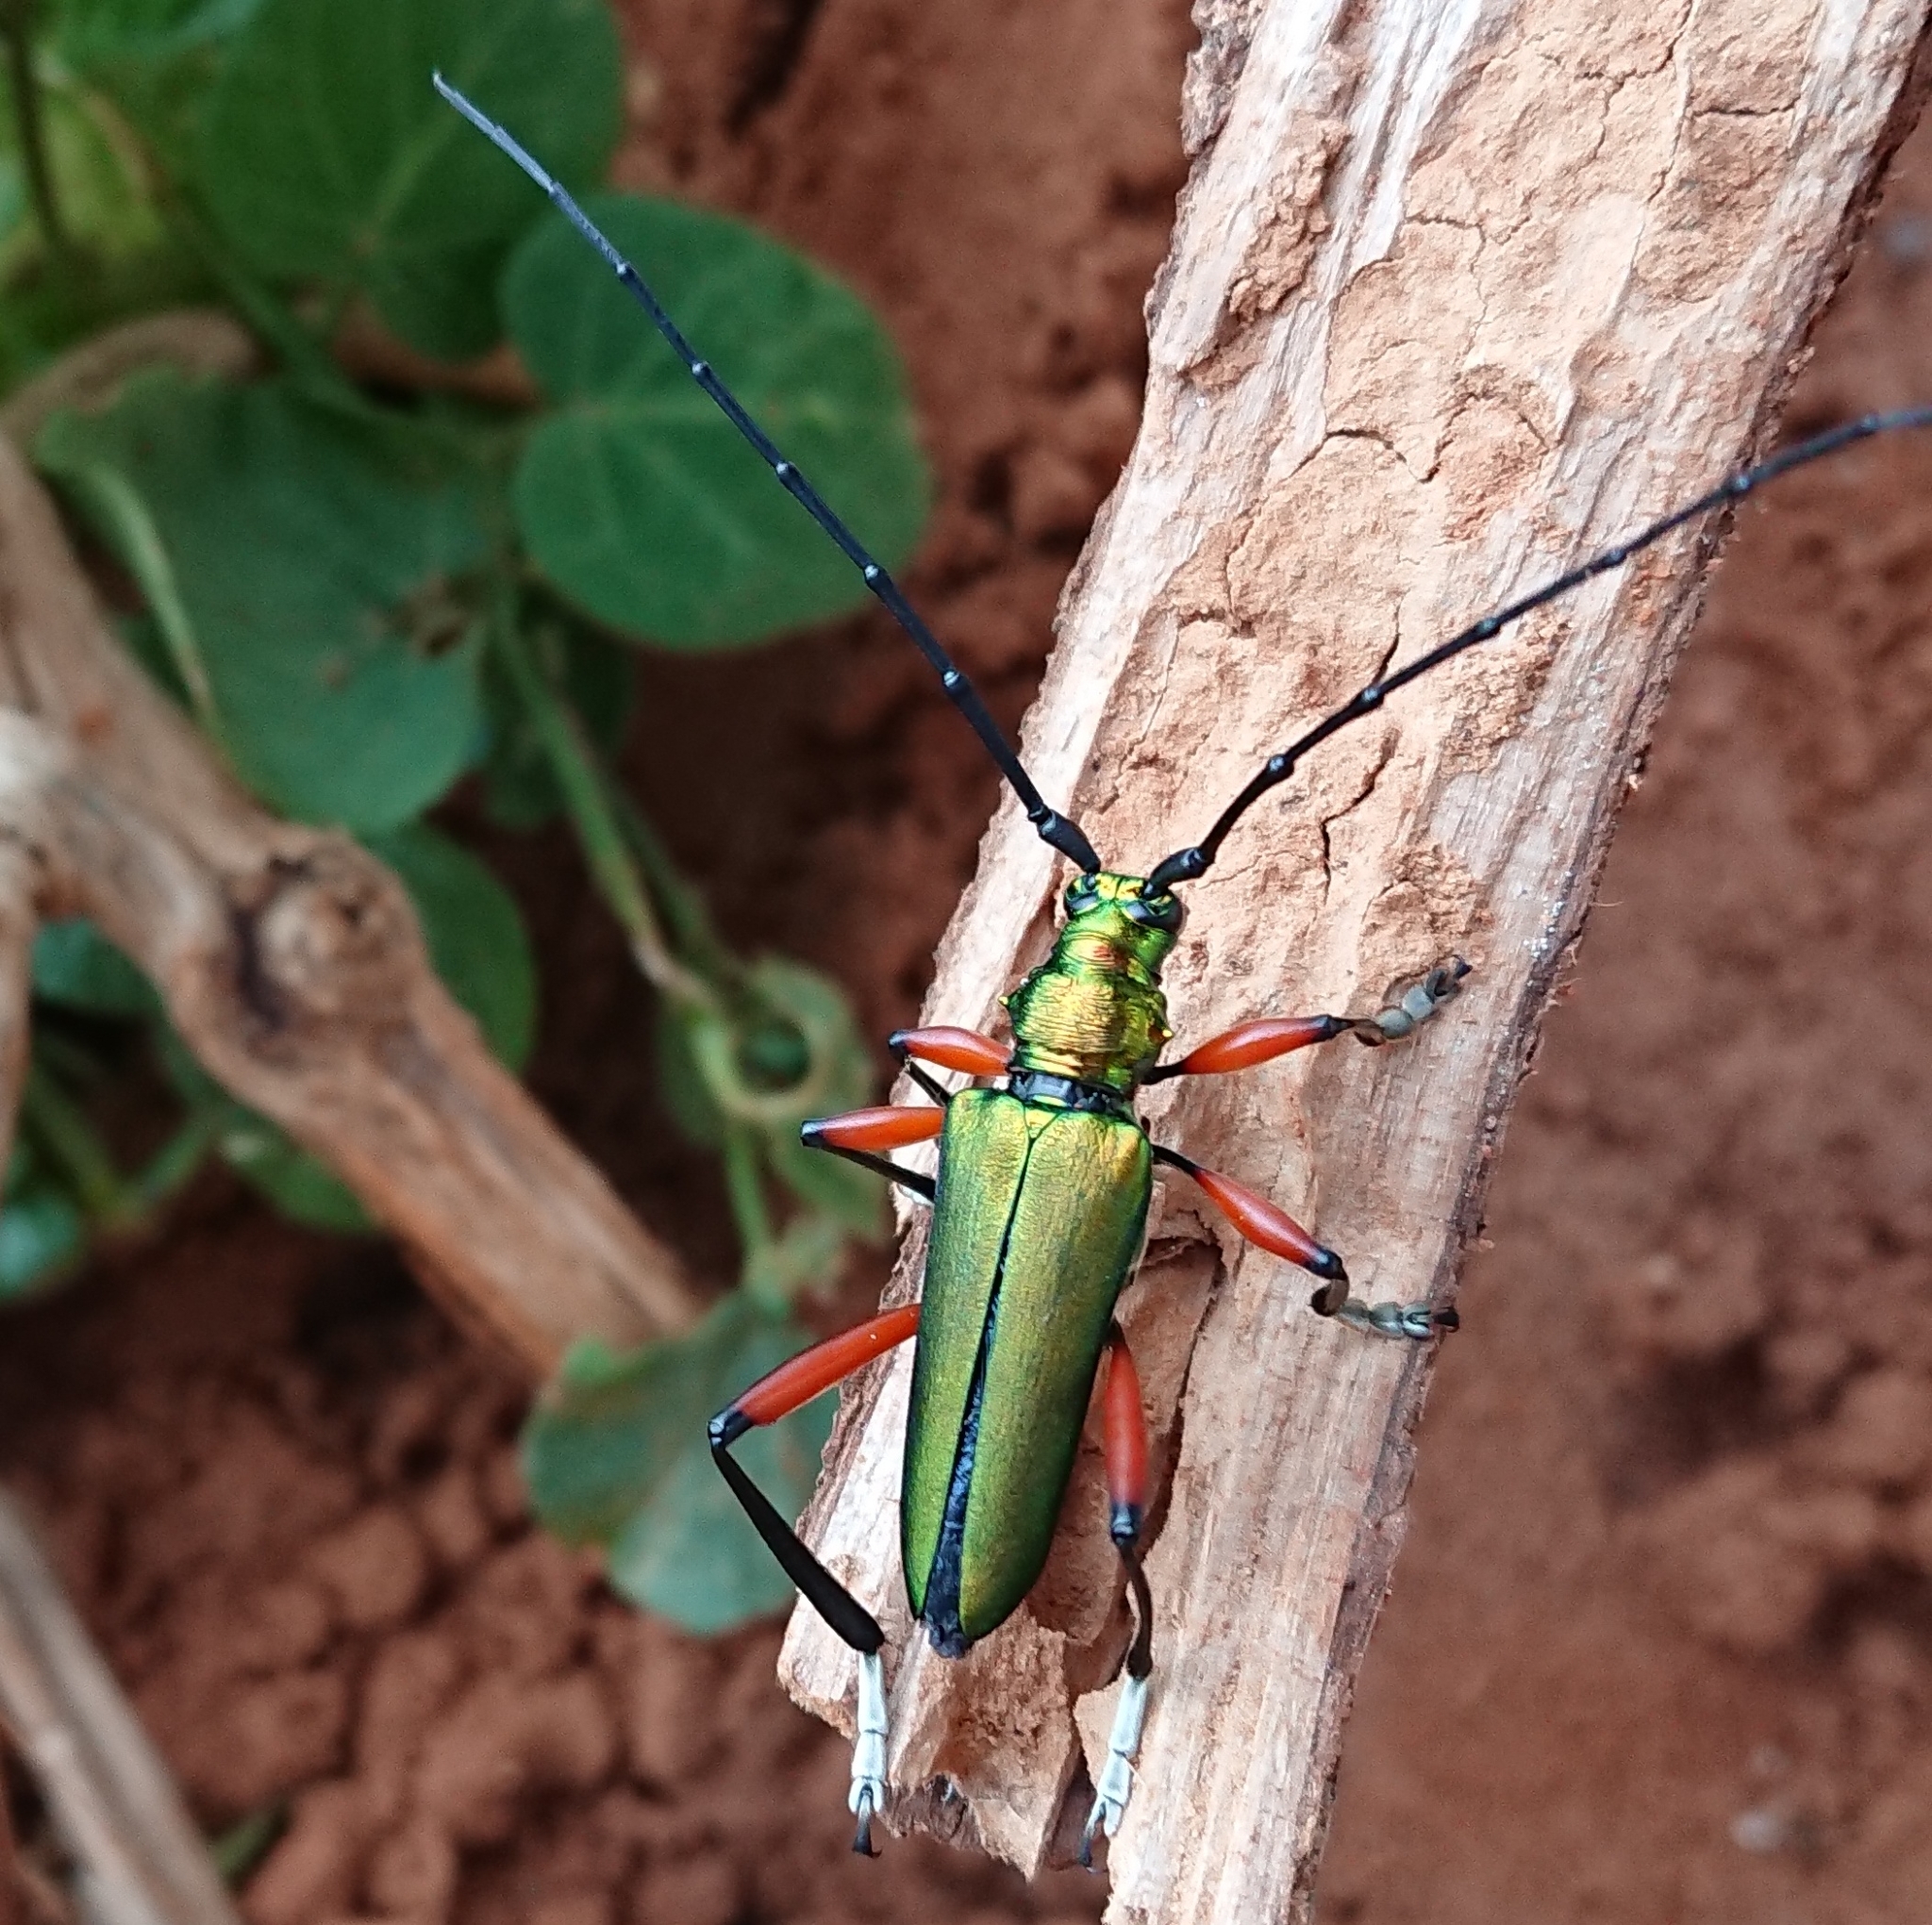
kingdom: Animalia
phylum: Arthropoda
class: Insecta
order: Coleoptera
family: Cerambycidae
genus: Philematium
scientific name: Philematium virens
